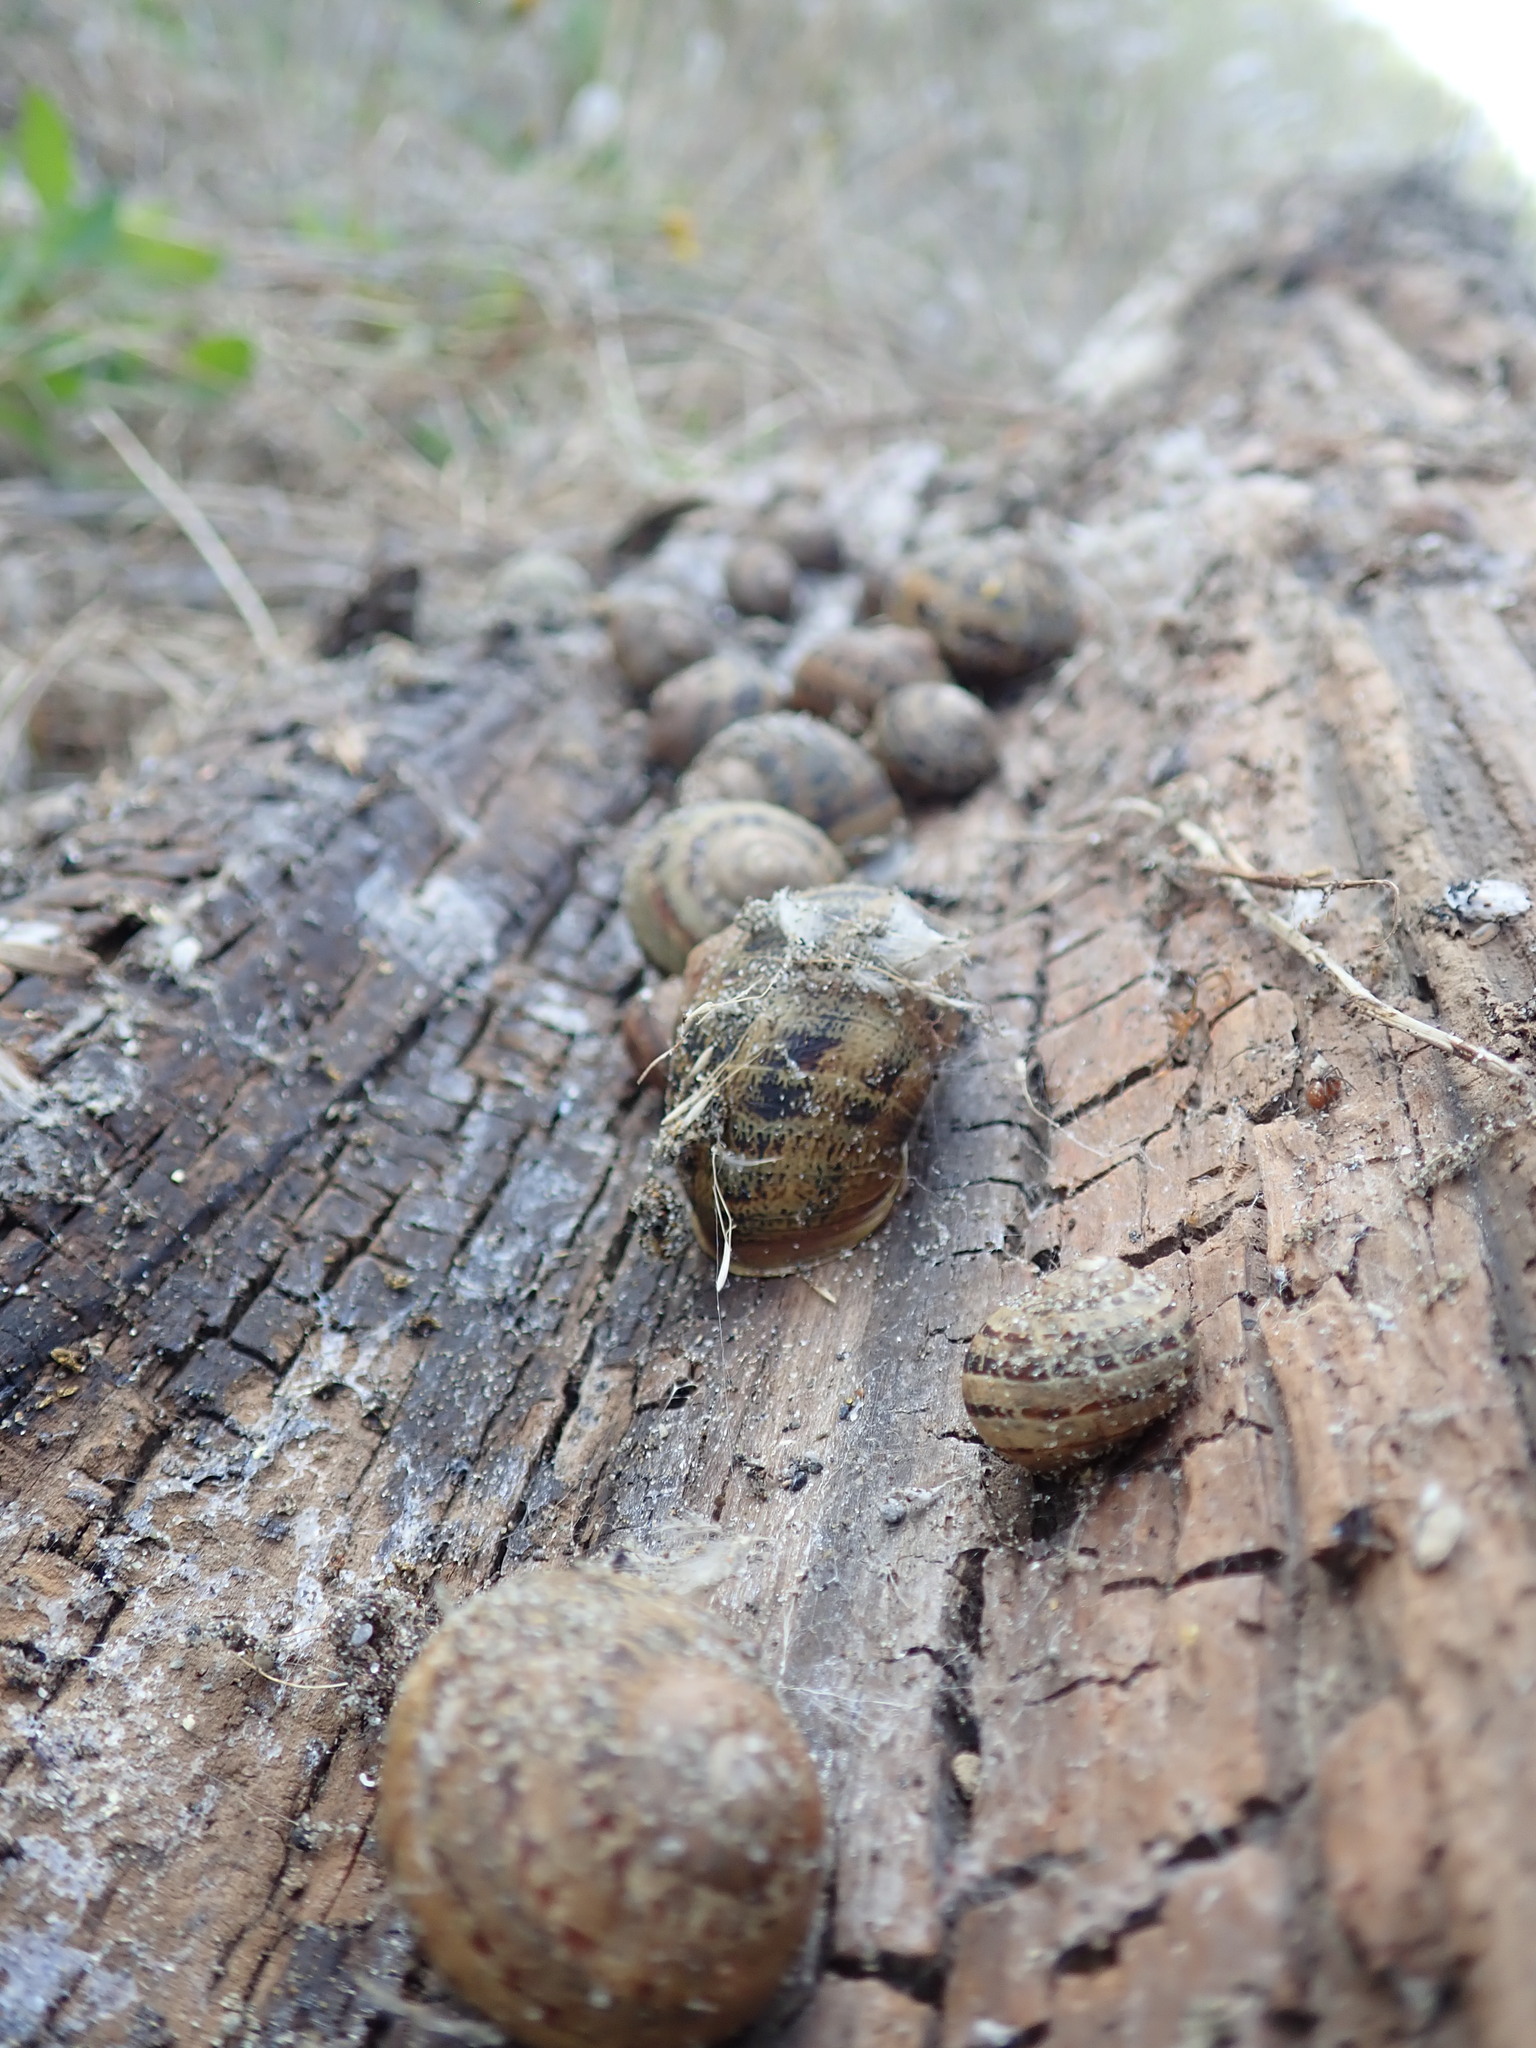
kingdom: Animalia
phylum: Mollusca
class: Gastropoda
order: Stylommatophora
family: Helicidae
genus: Cornu
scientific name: Cornu aspersum
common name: Brown garden snail
